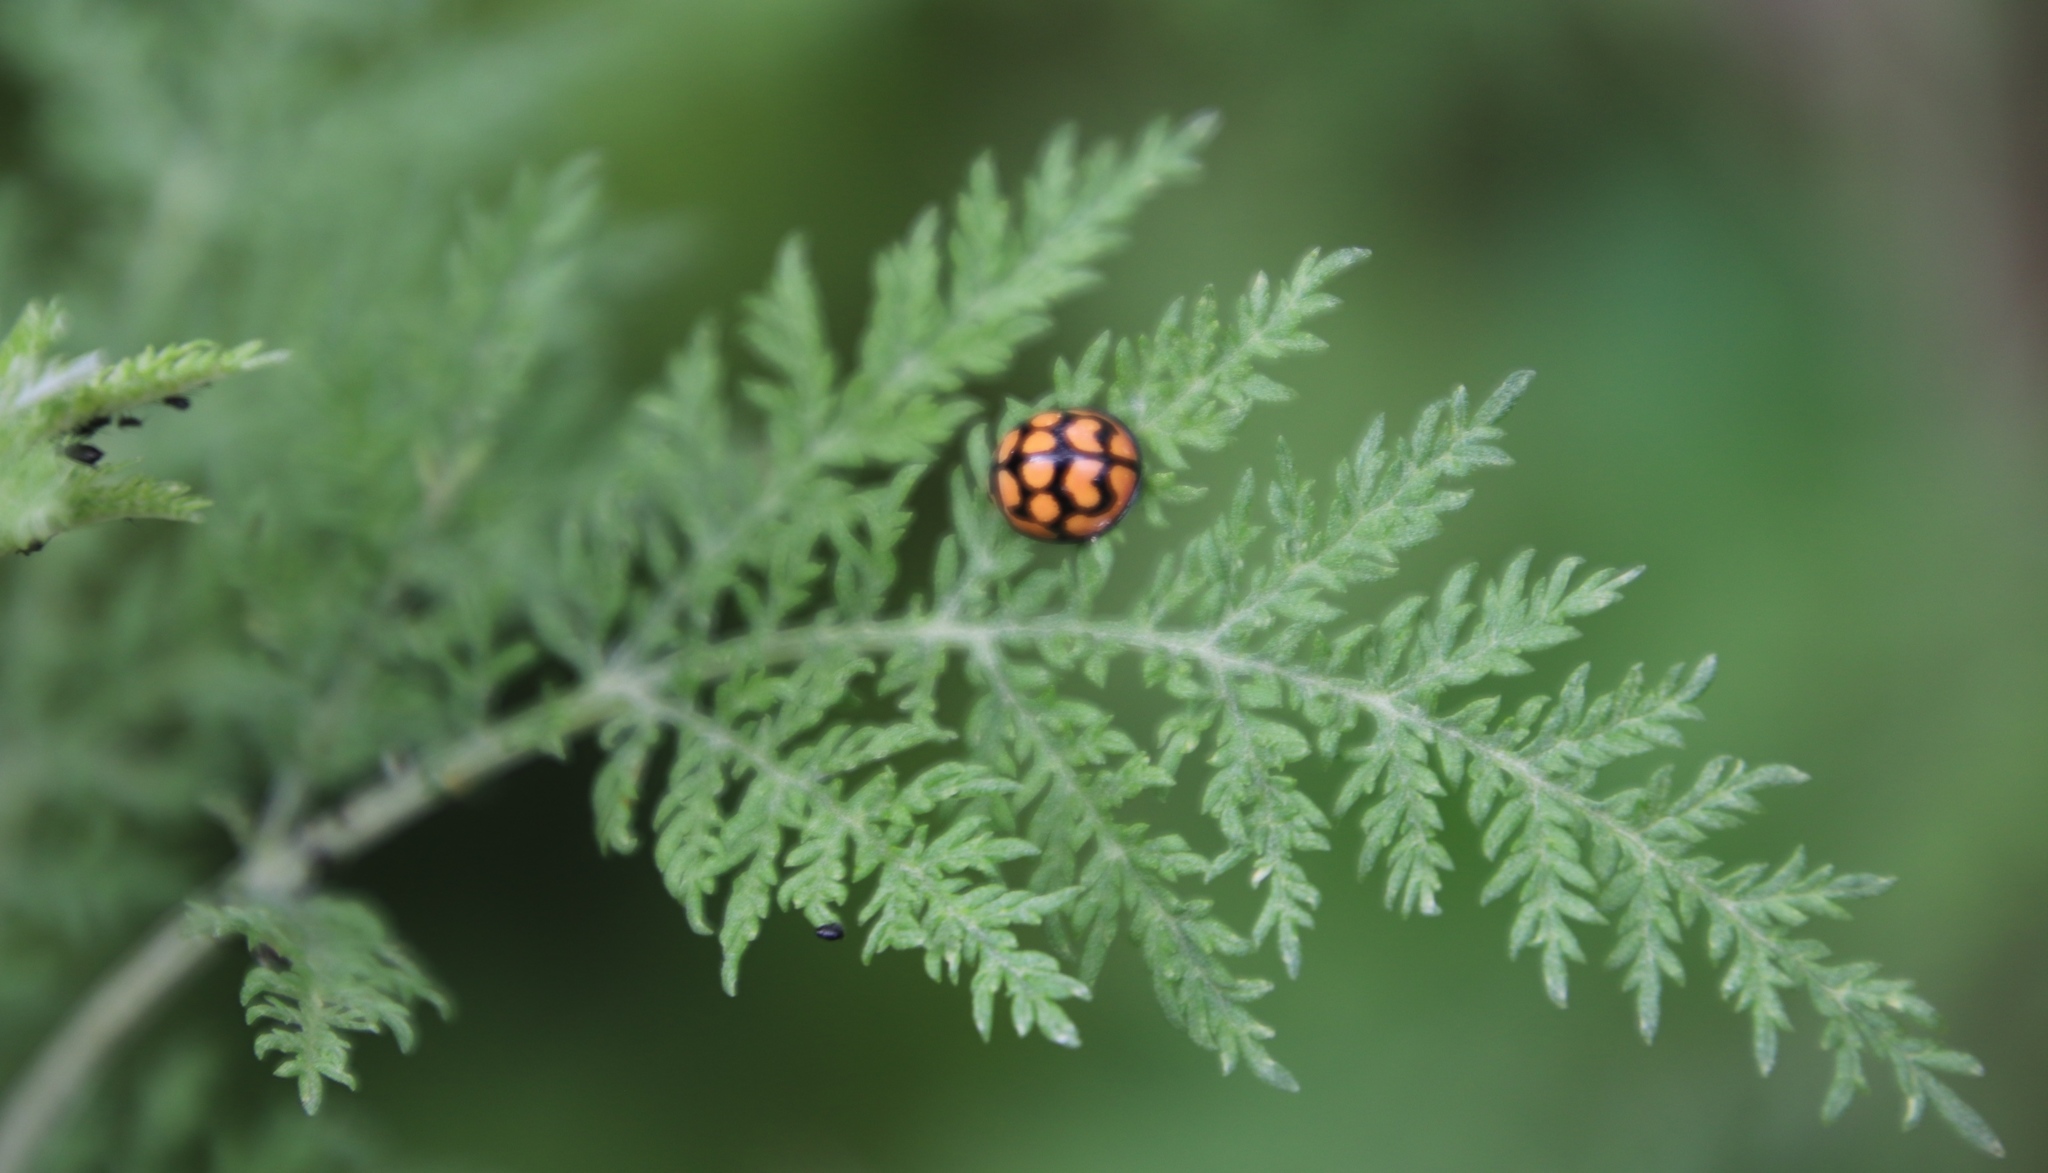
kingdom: Plantae
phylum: Tracheophyta
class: Magnoliopsida
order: Asterales
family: Asteraceae
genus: Artemisia
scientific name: Artemisia afra
